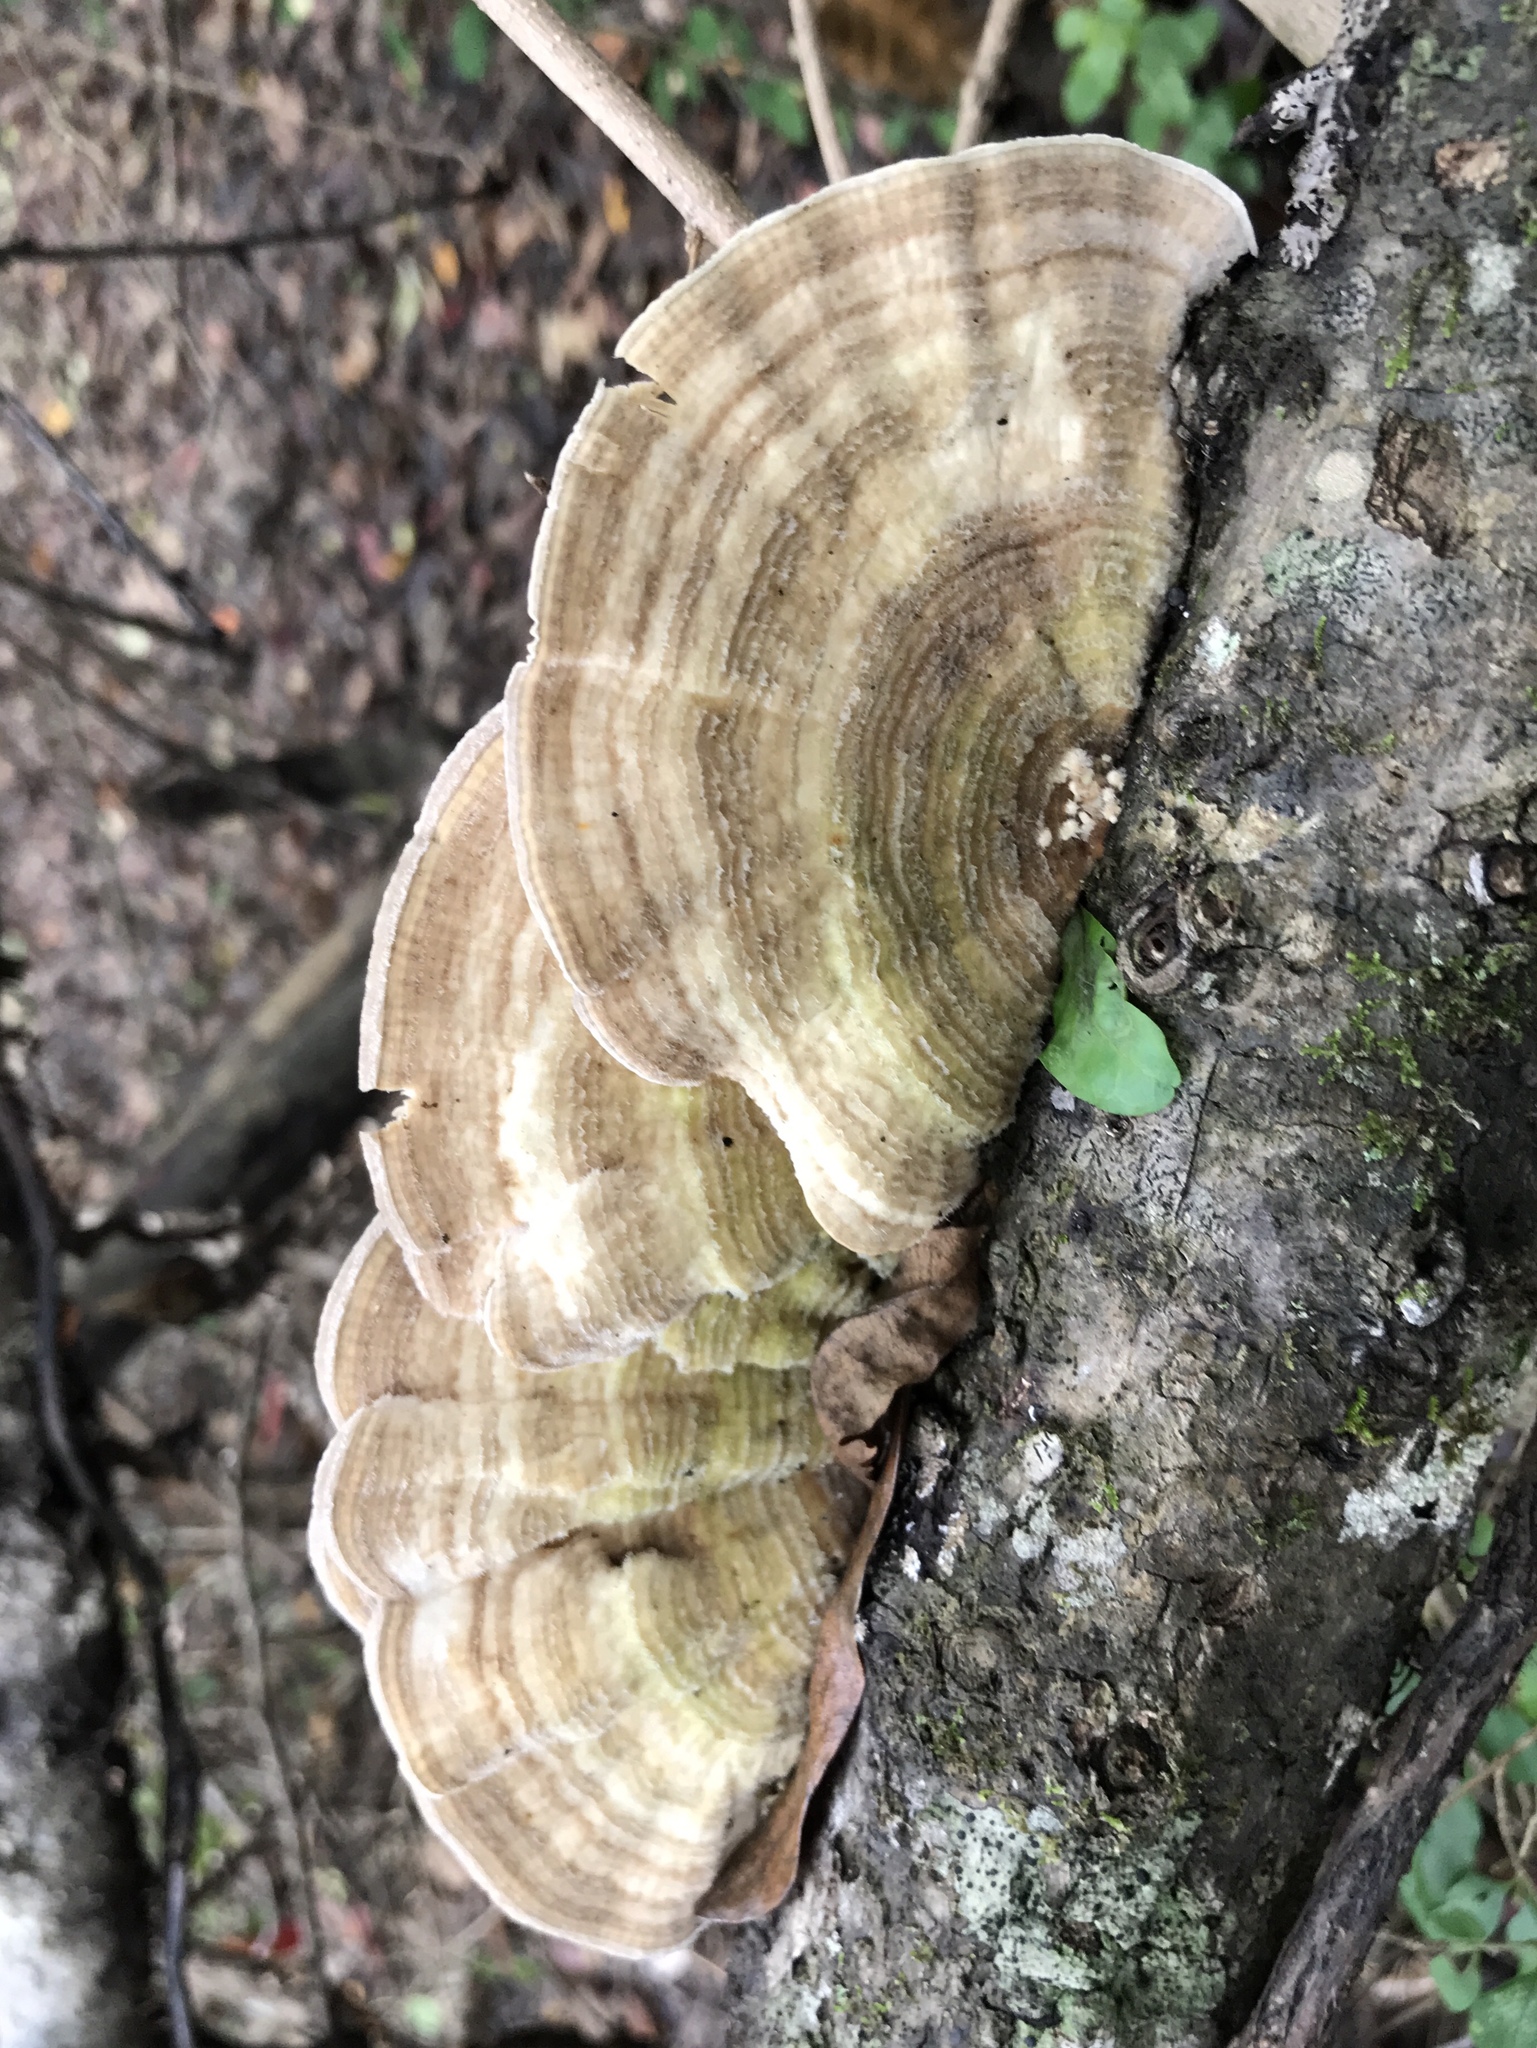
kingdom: Fungi
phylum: Basidiomycota
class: Agaricomycetes
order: Polyporales
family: Polyporaceae
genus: Lenzites
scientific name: Lenzites betulinus
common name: Birch mazegill
